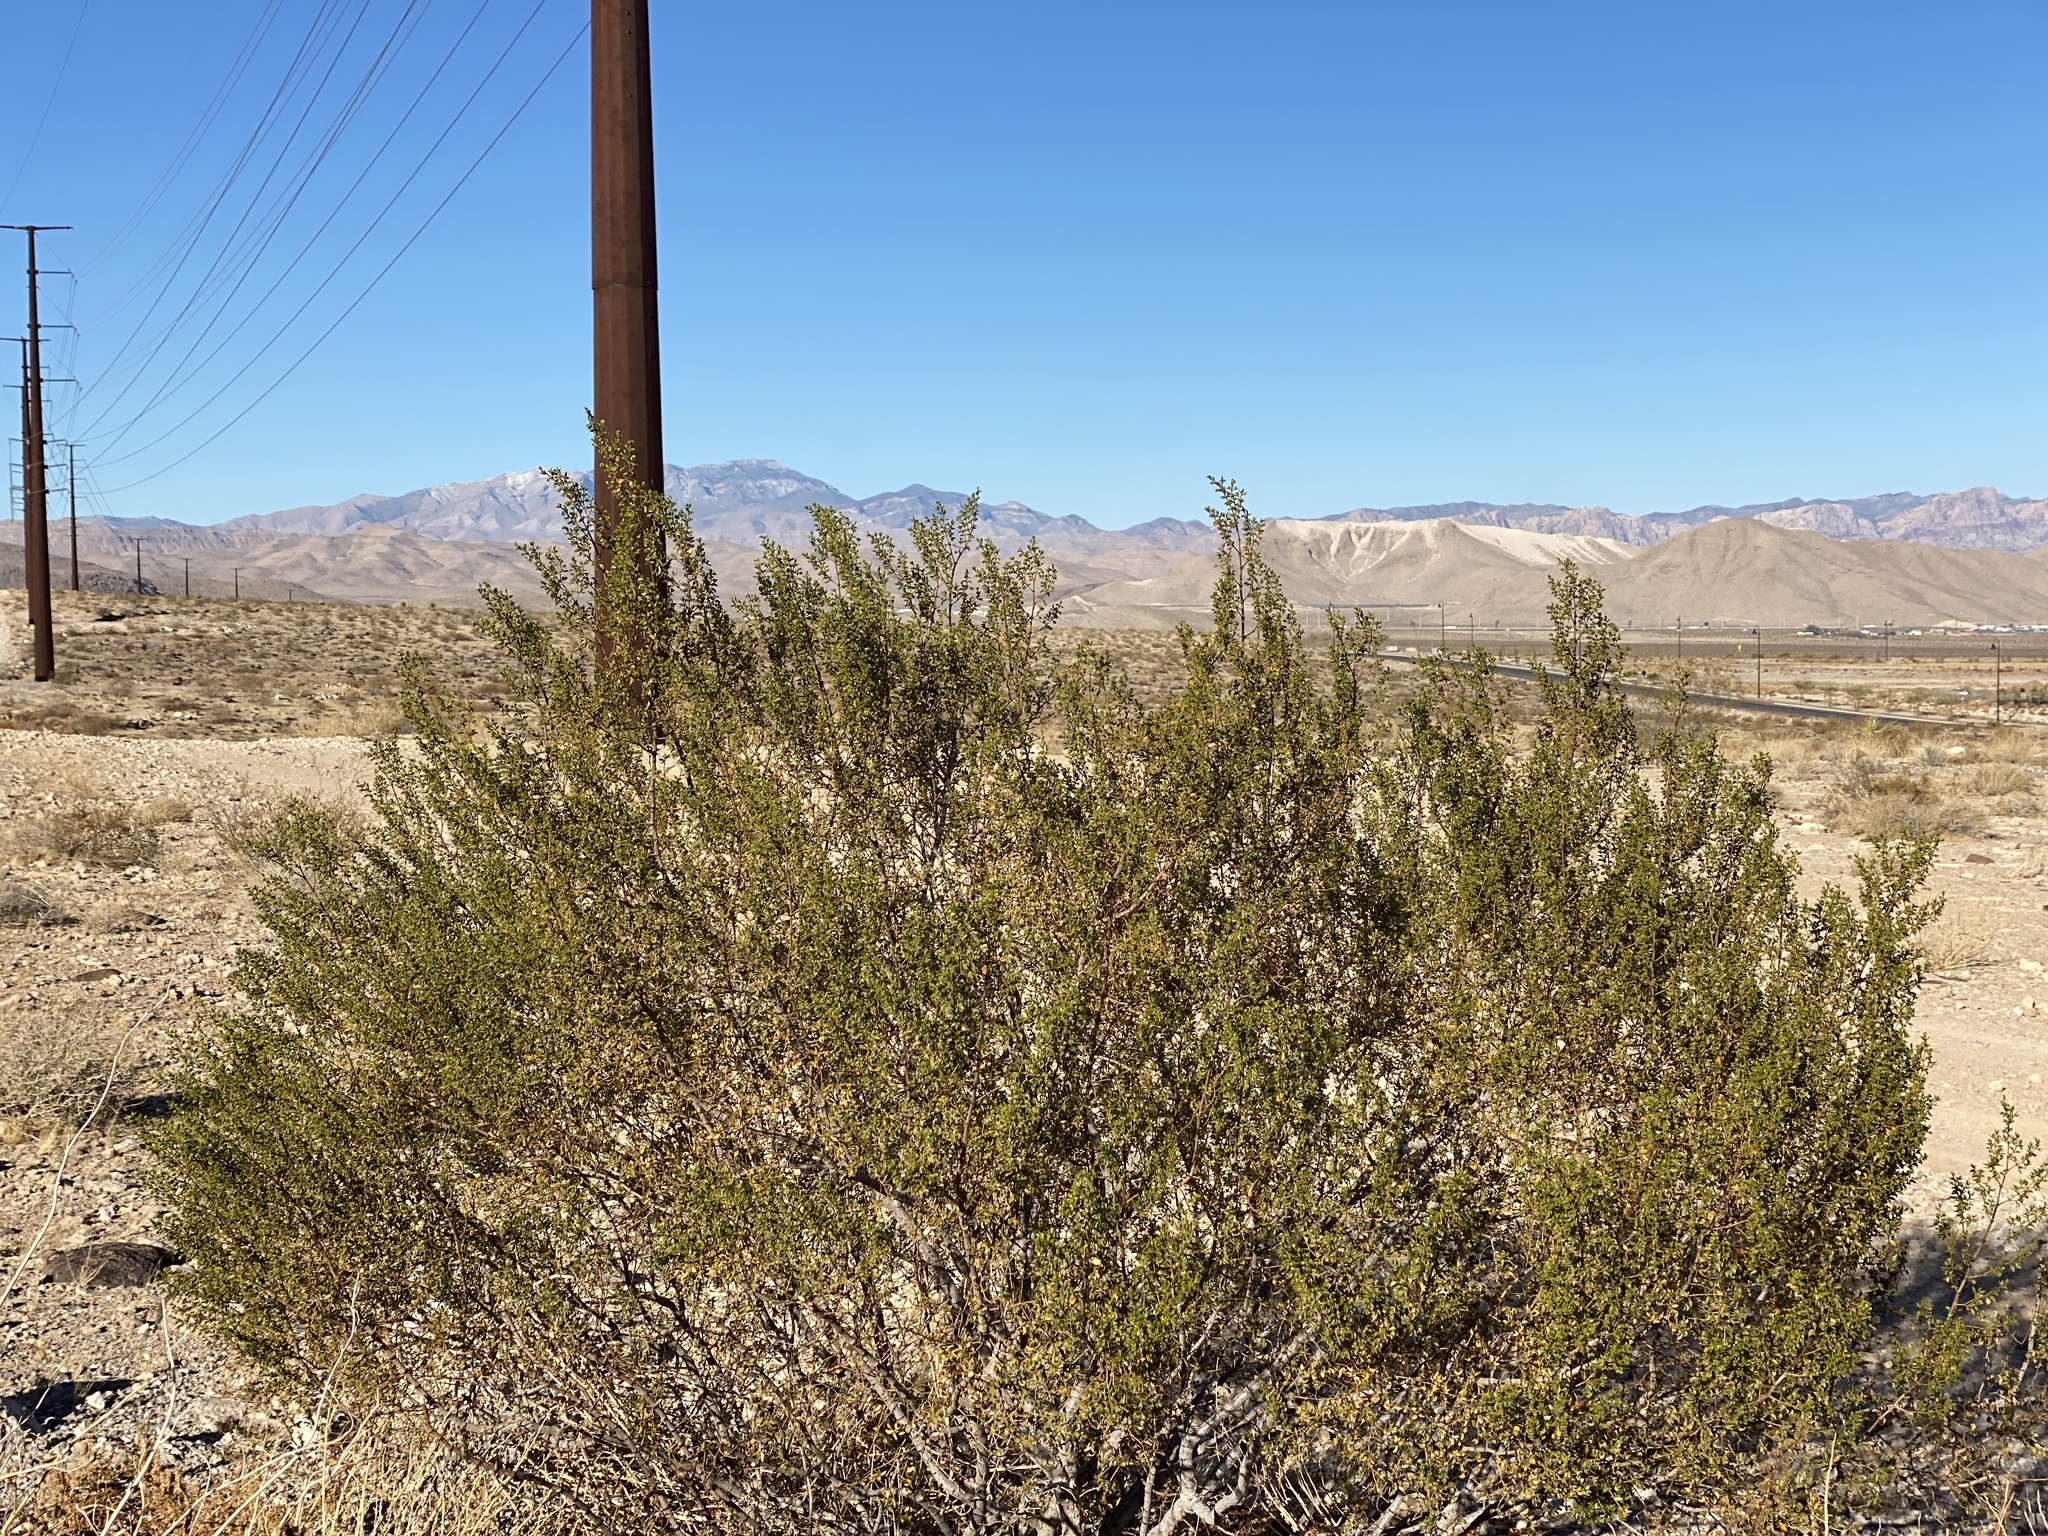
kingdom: Plantae
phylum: Tracheophyta
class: Magnoliopsida
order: Zygophyllales
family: Zygophyllaceae
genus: Larrea
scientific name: Larrea tridentata
